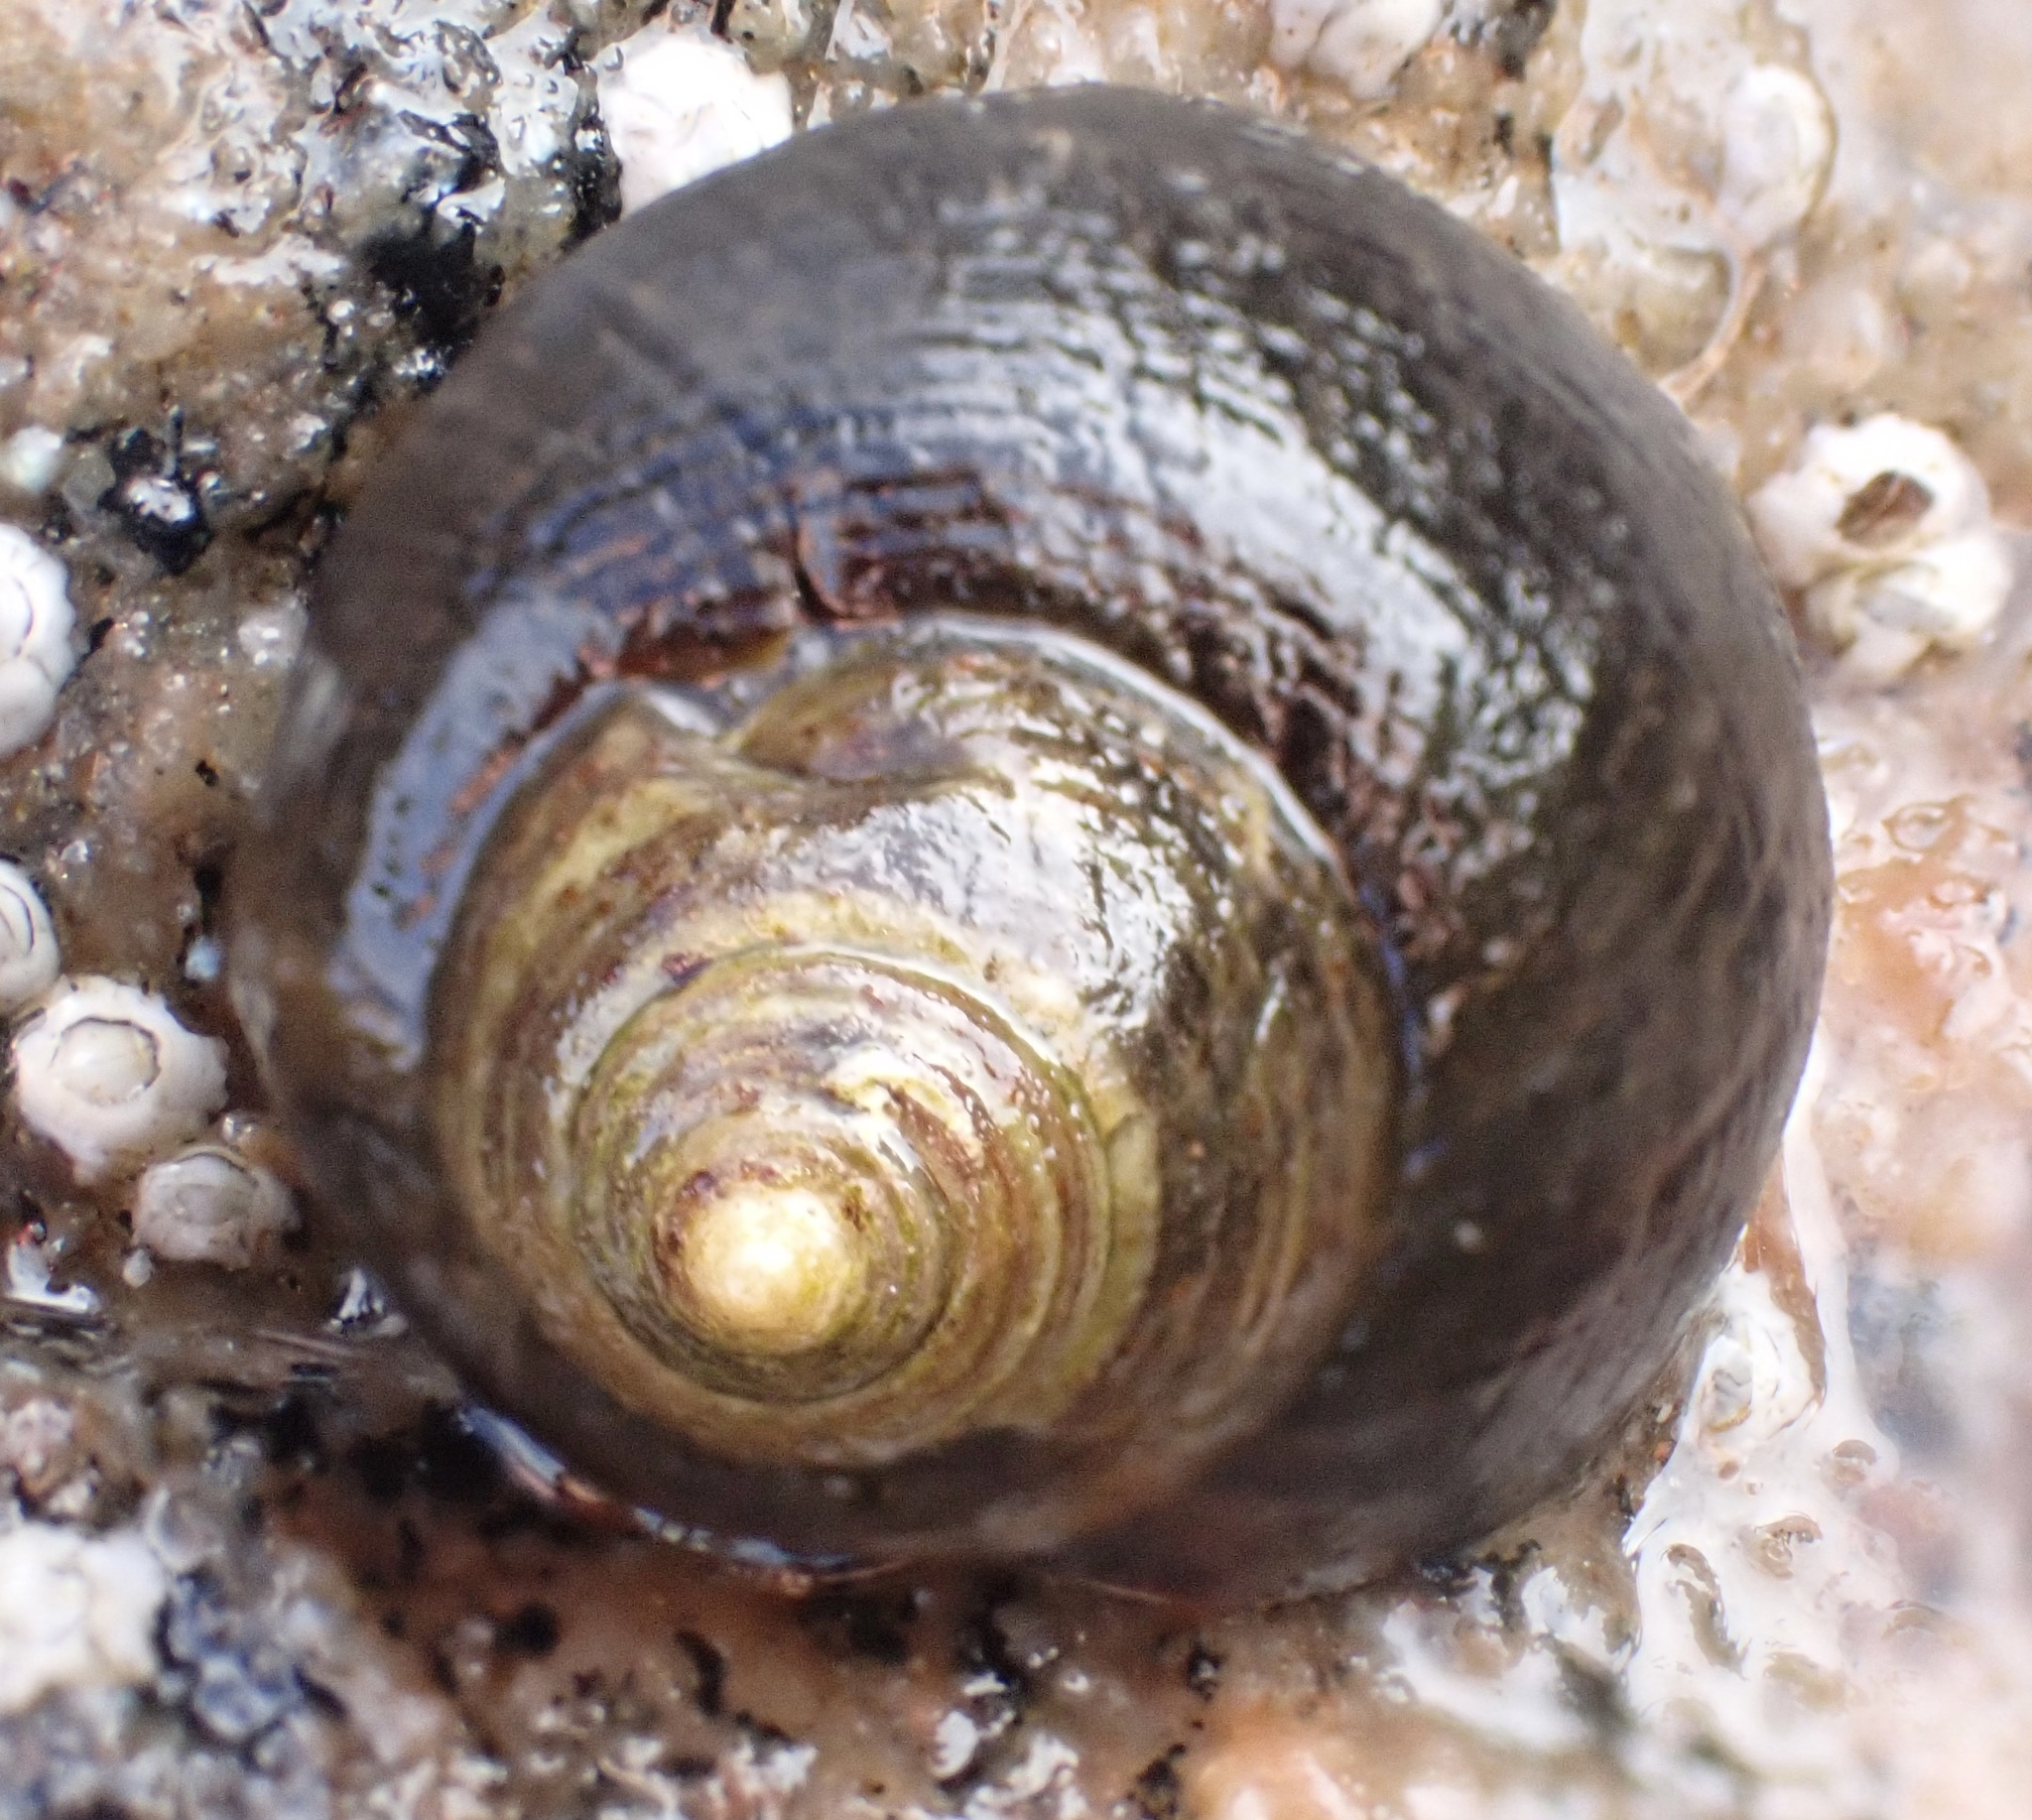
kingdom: Animalia
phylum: Mollusca
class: Gastropoda
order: Littorinimorpha
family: Littorinidae
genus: Littorina
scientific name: Littorina littorea
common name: Common periwinkle
